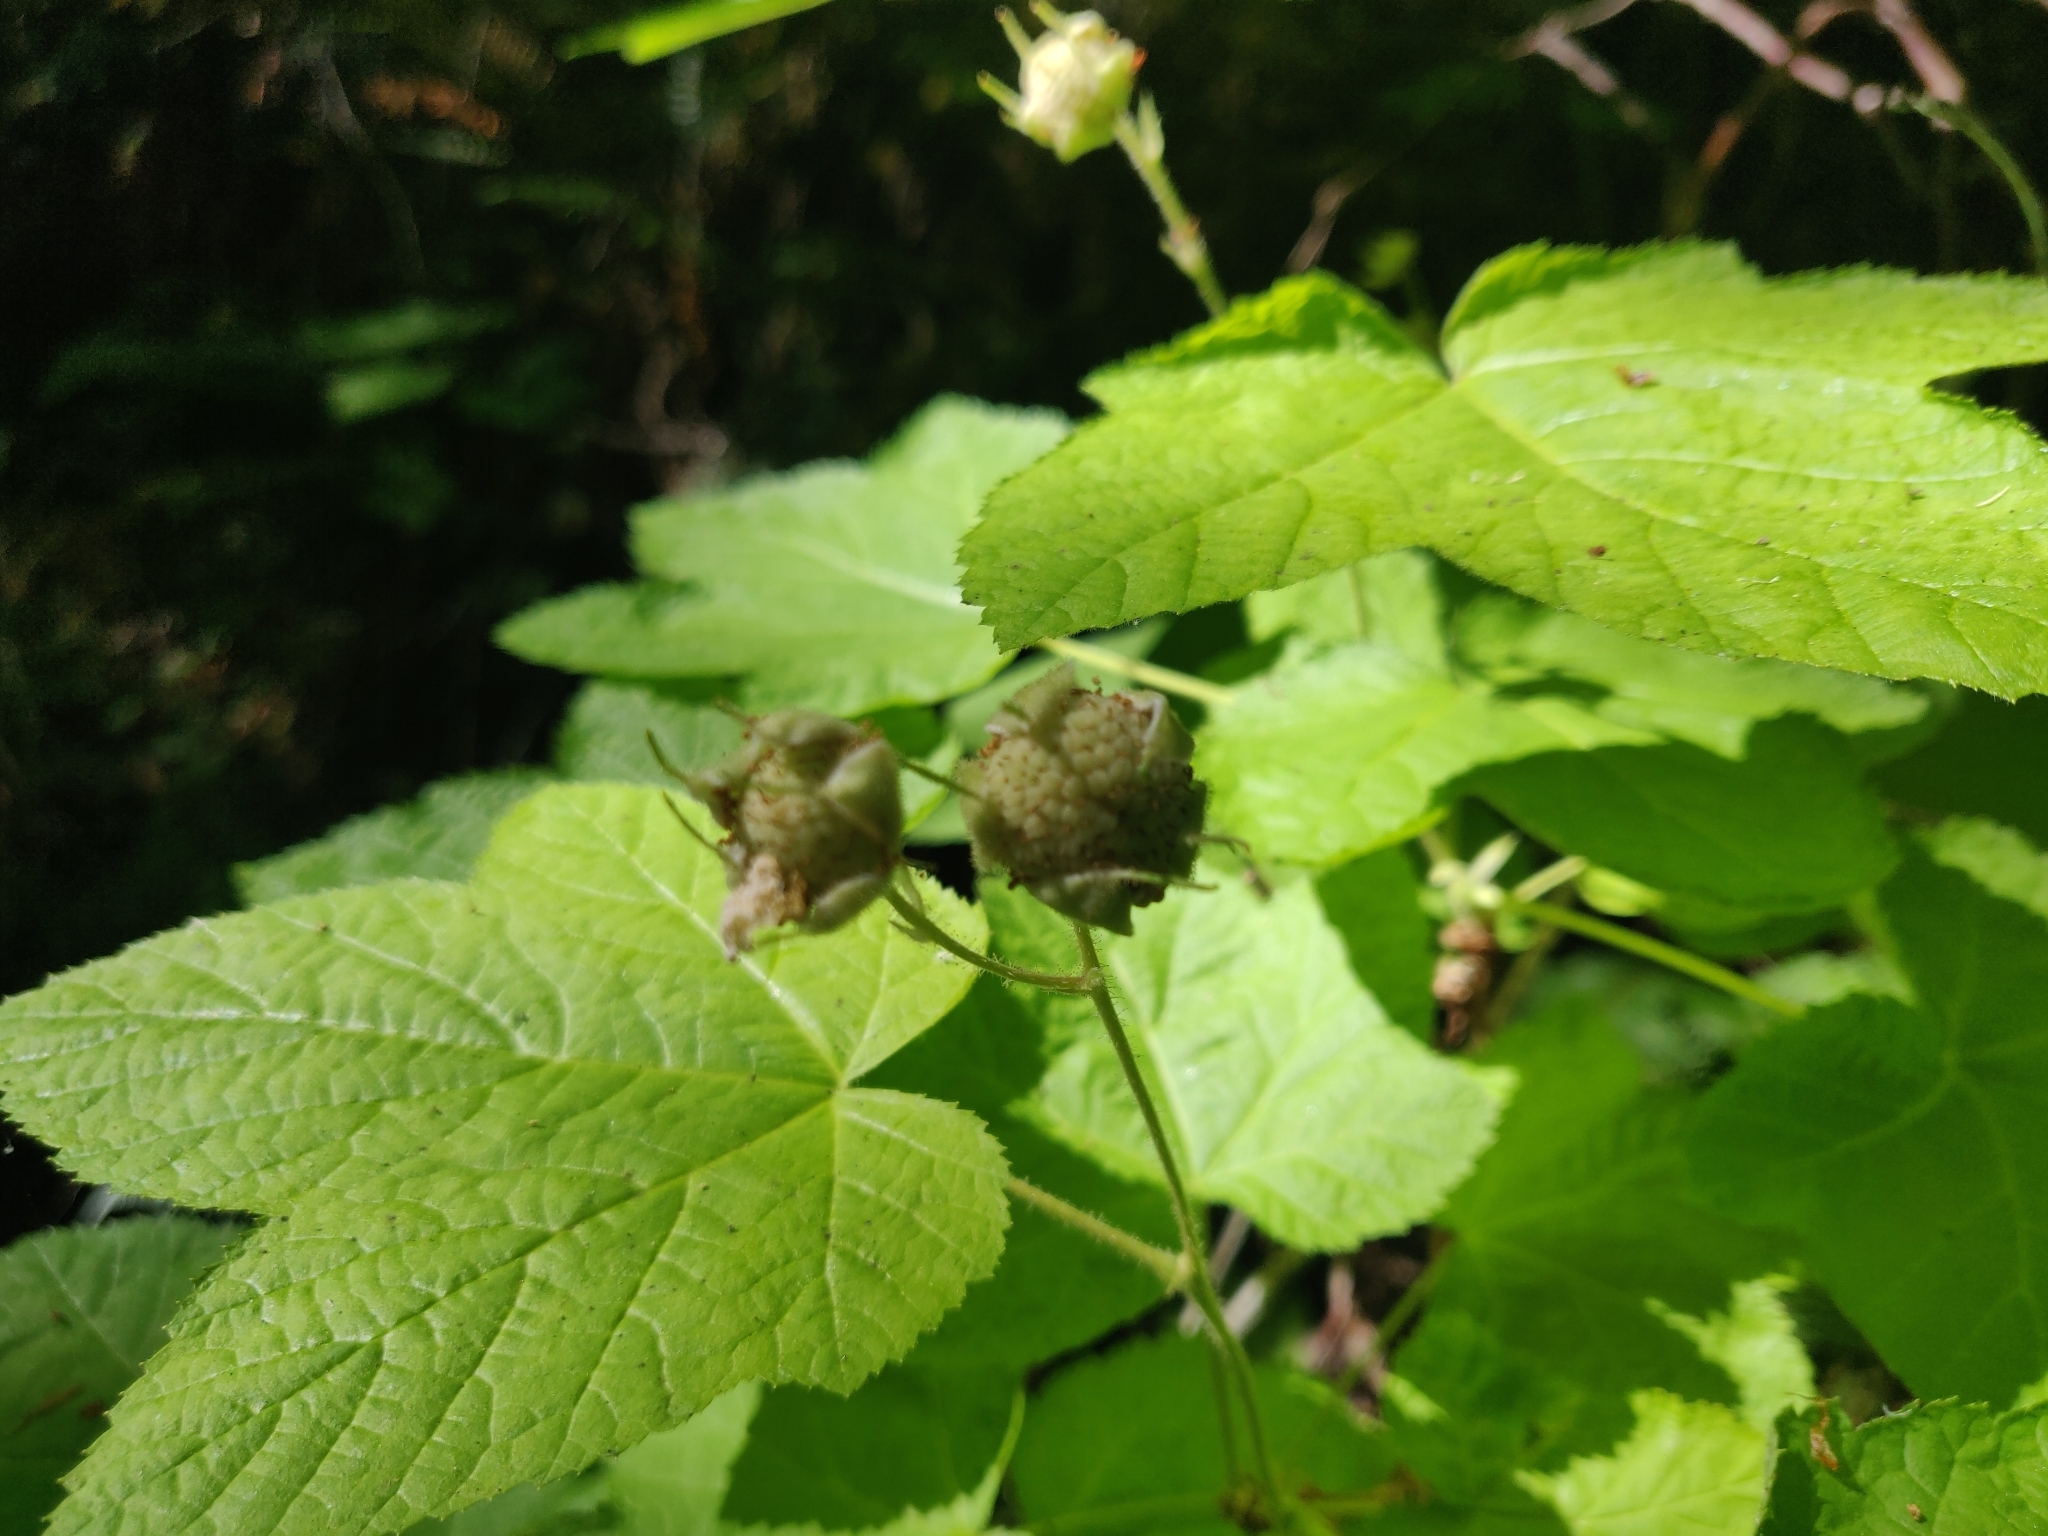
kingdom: Plantae
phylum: Tracheophyta
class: Magnoliopsida
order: Rosales
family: Rosaceae
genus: Rubus
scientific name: Rubus parviflorus
